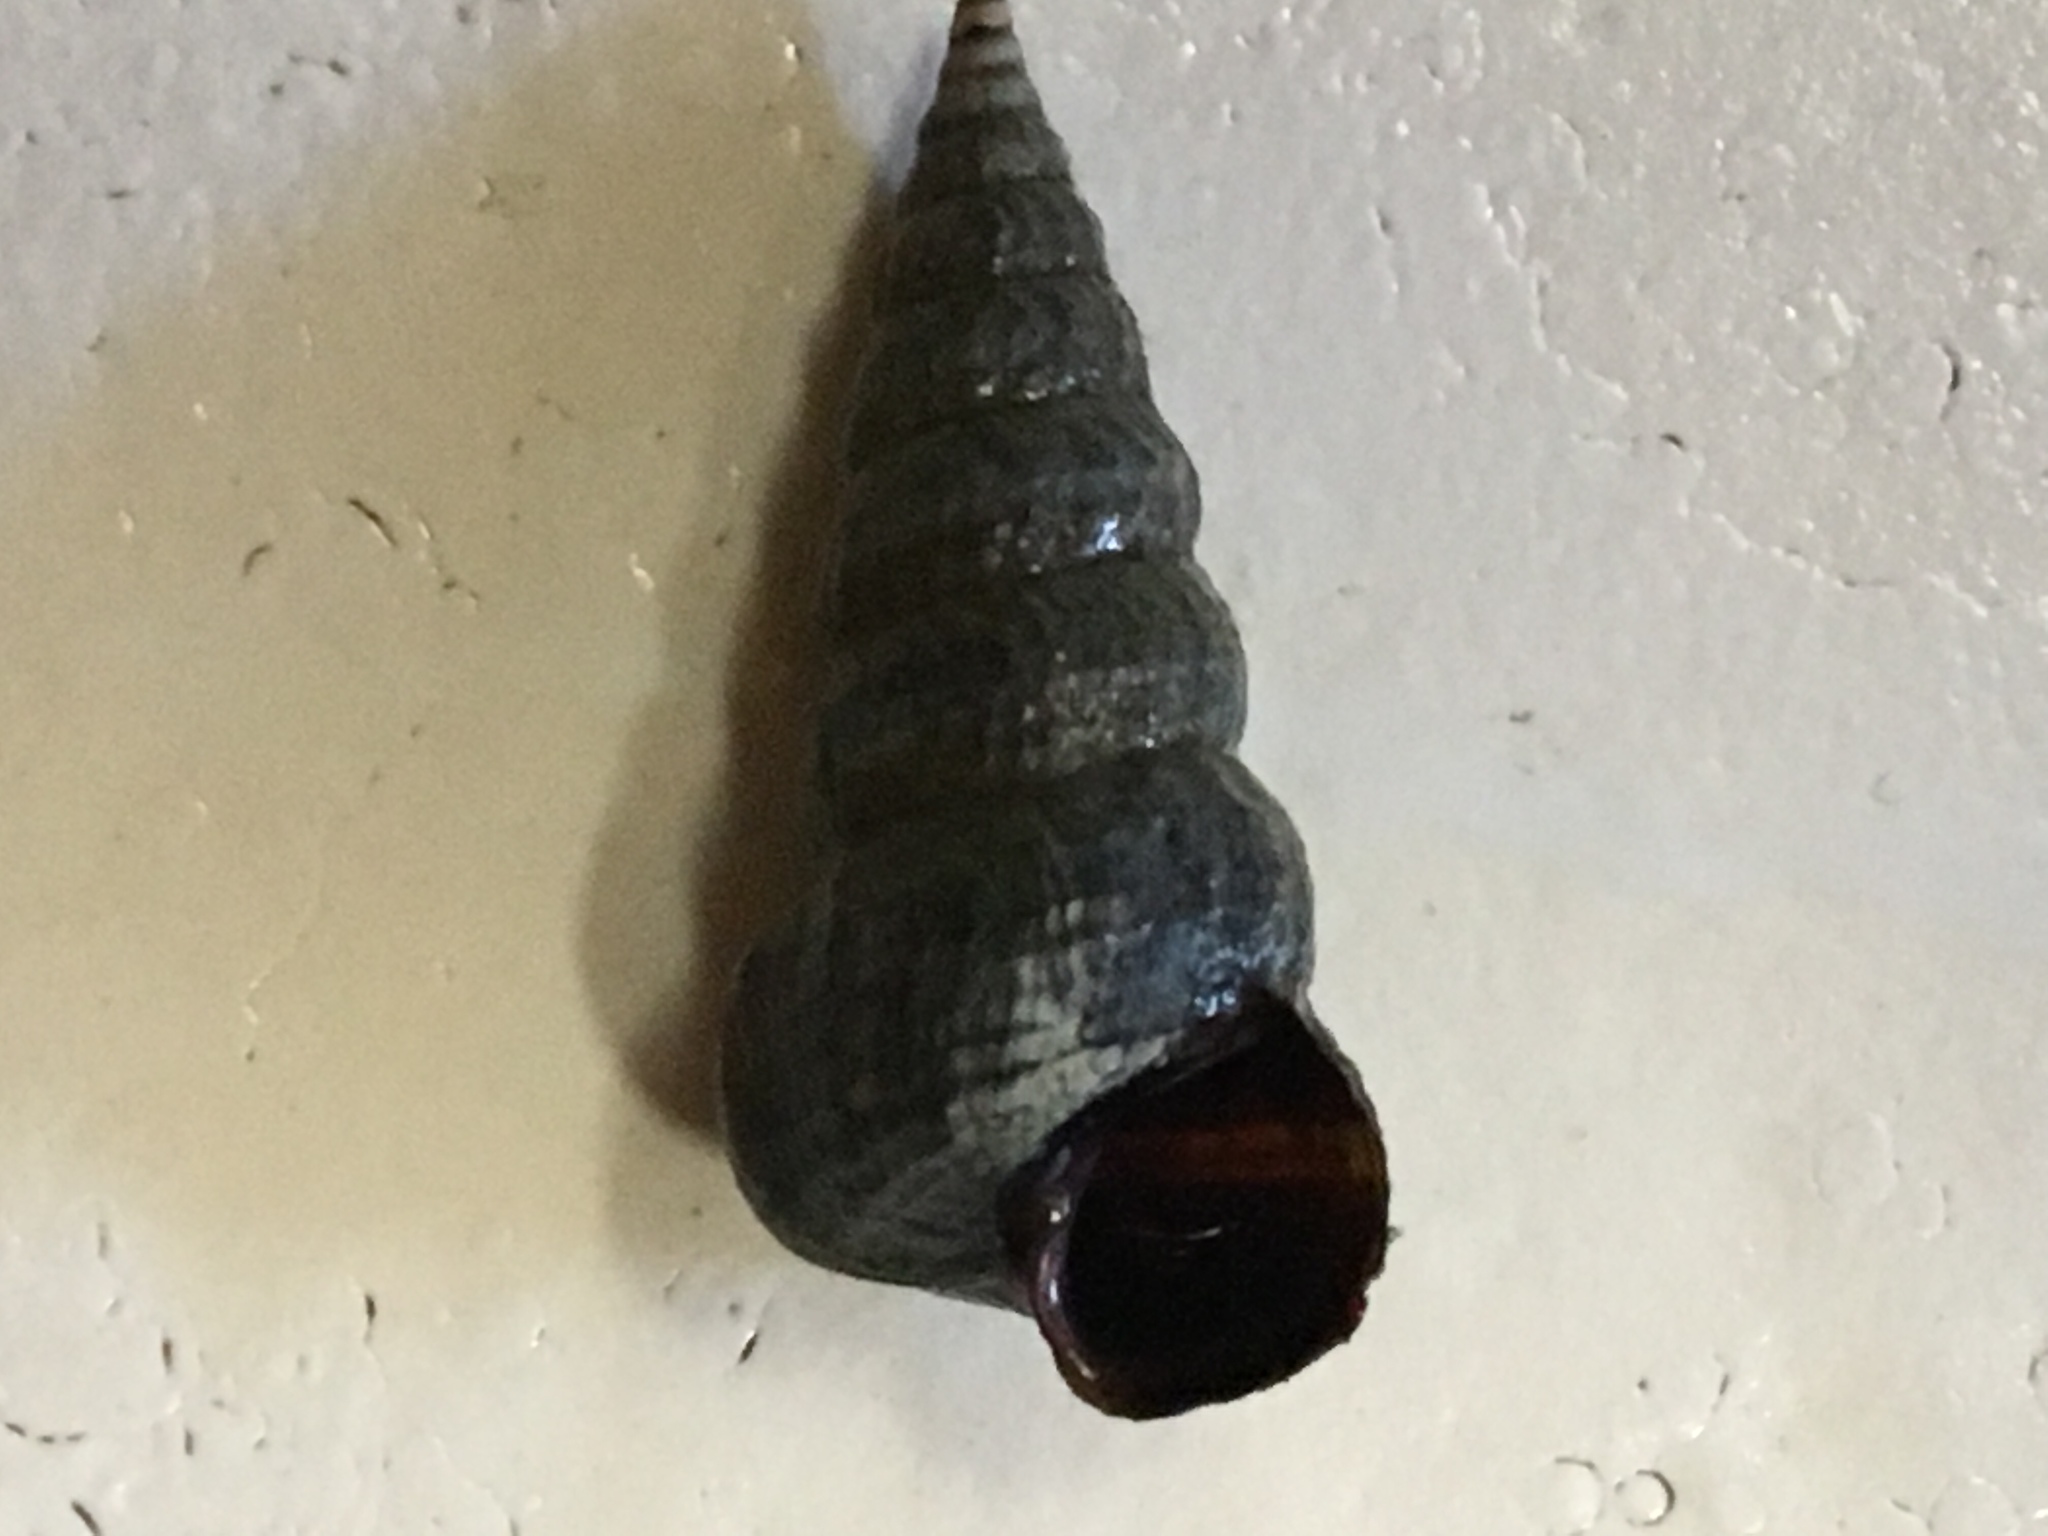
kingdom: Animalia
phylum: Mollusca
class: Gastropoda
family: Potamididae
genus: Cerithideopsis
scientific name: Cerithideopsis californica
